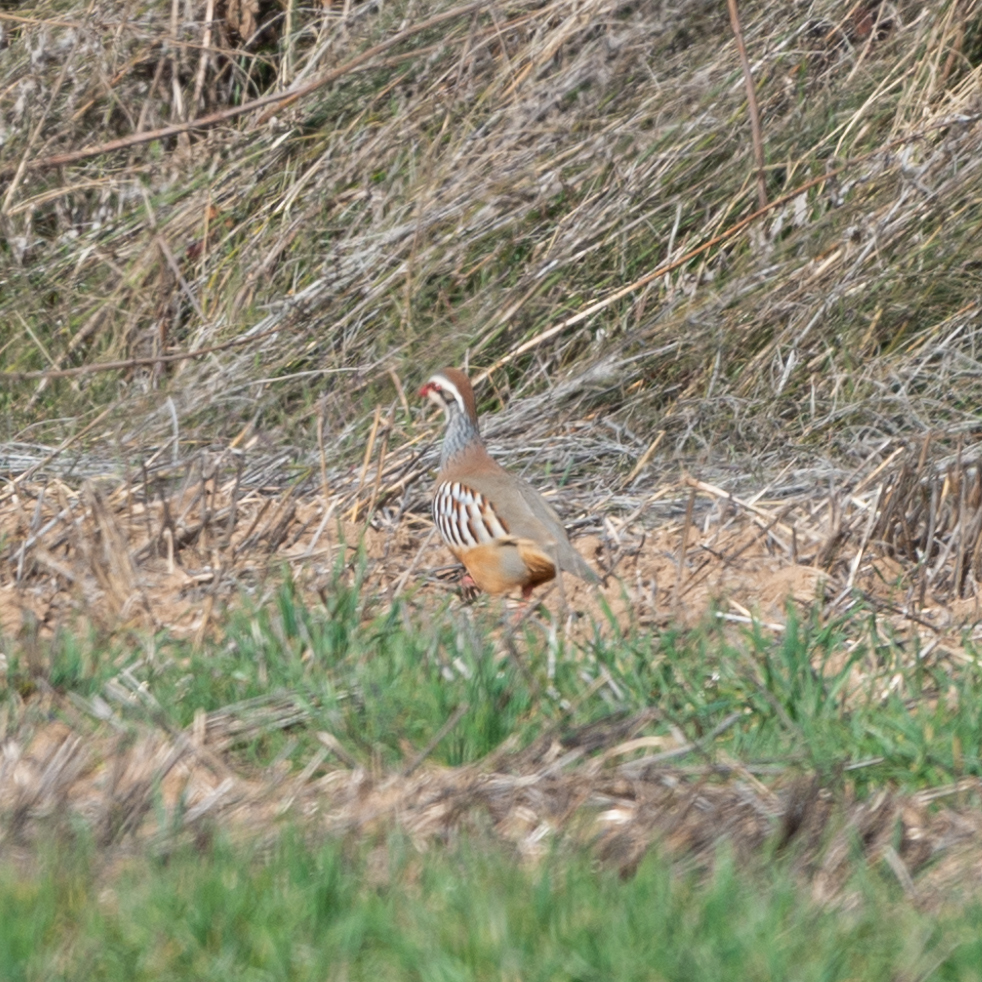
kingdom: Animalia
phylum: Chordata
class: Aves
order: Galliformes
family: Phasianidae
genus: Alectoris
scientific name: Alectoris rufa
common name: Red-legged partridge
